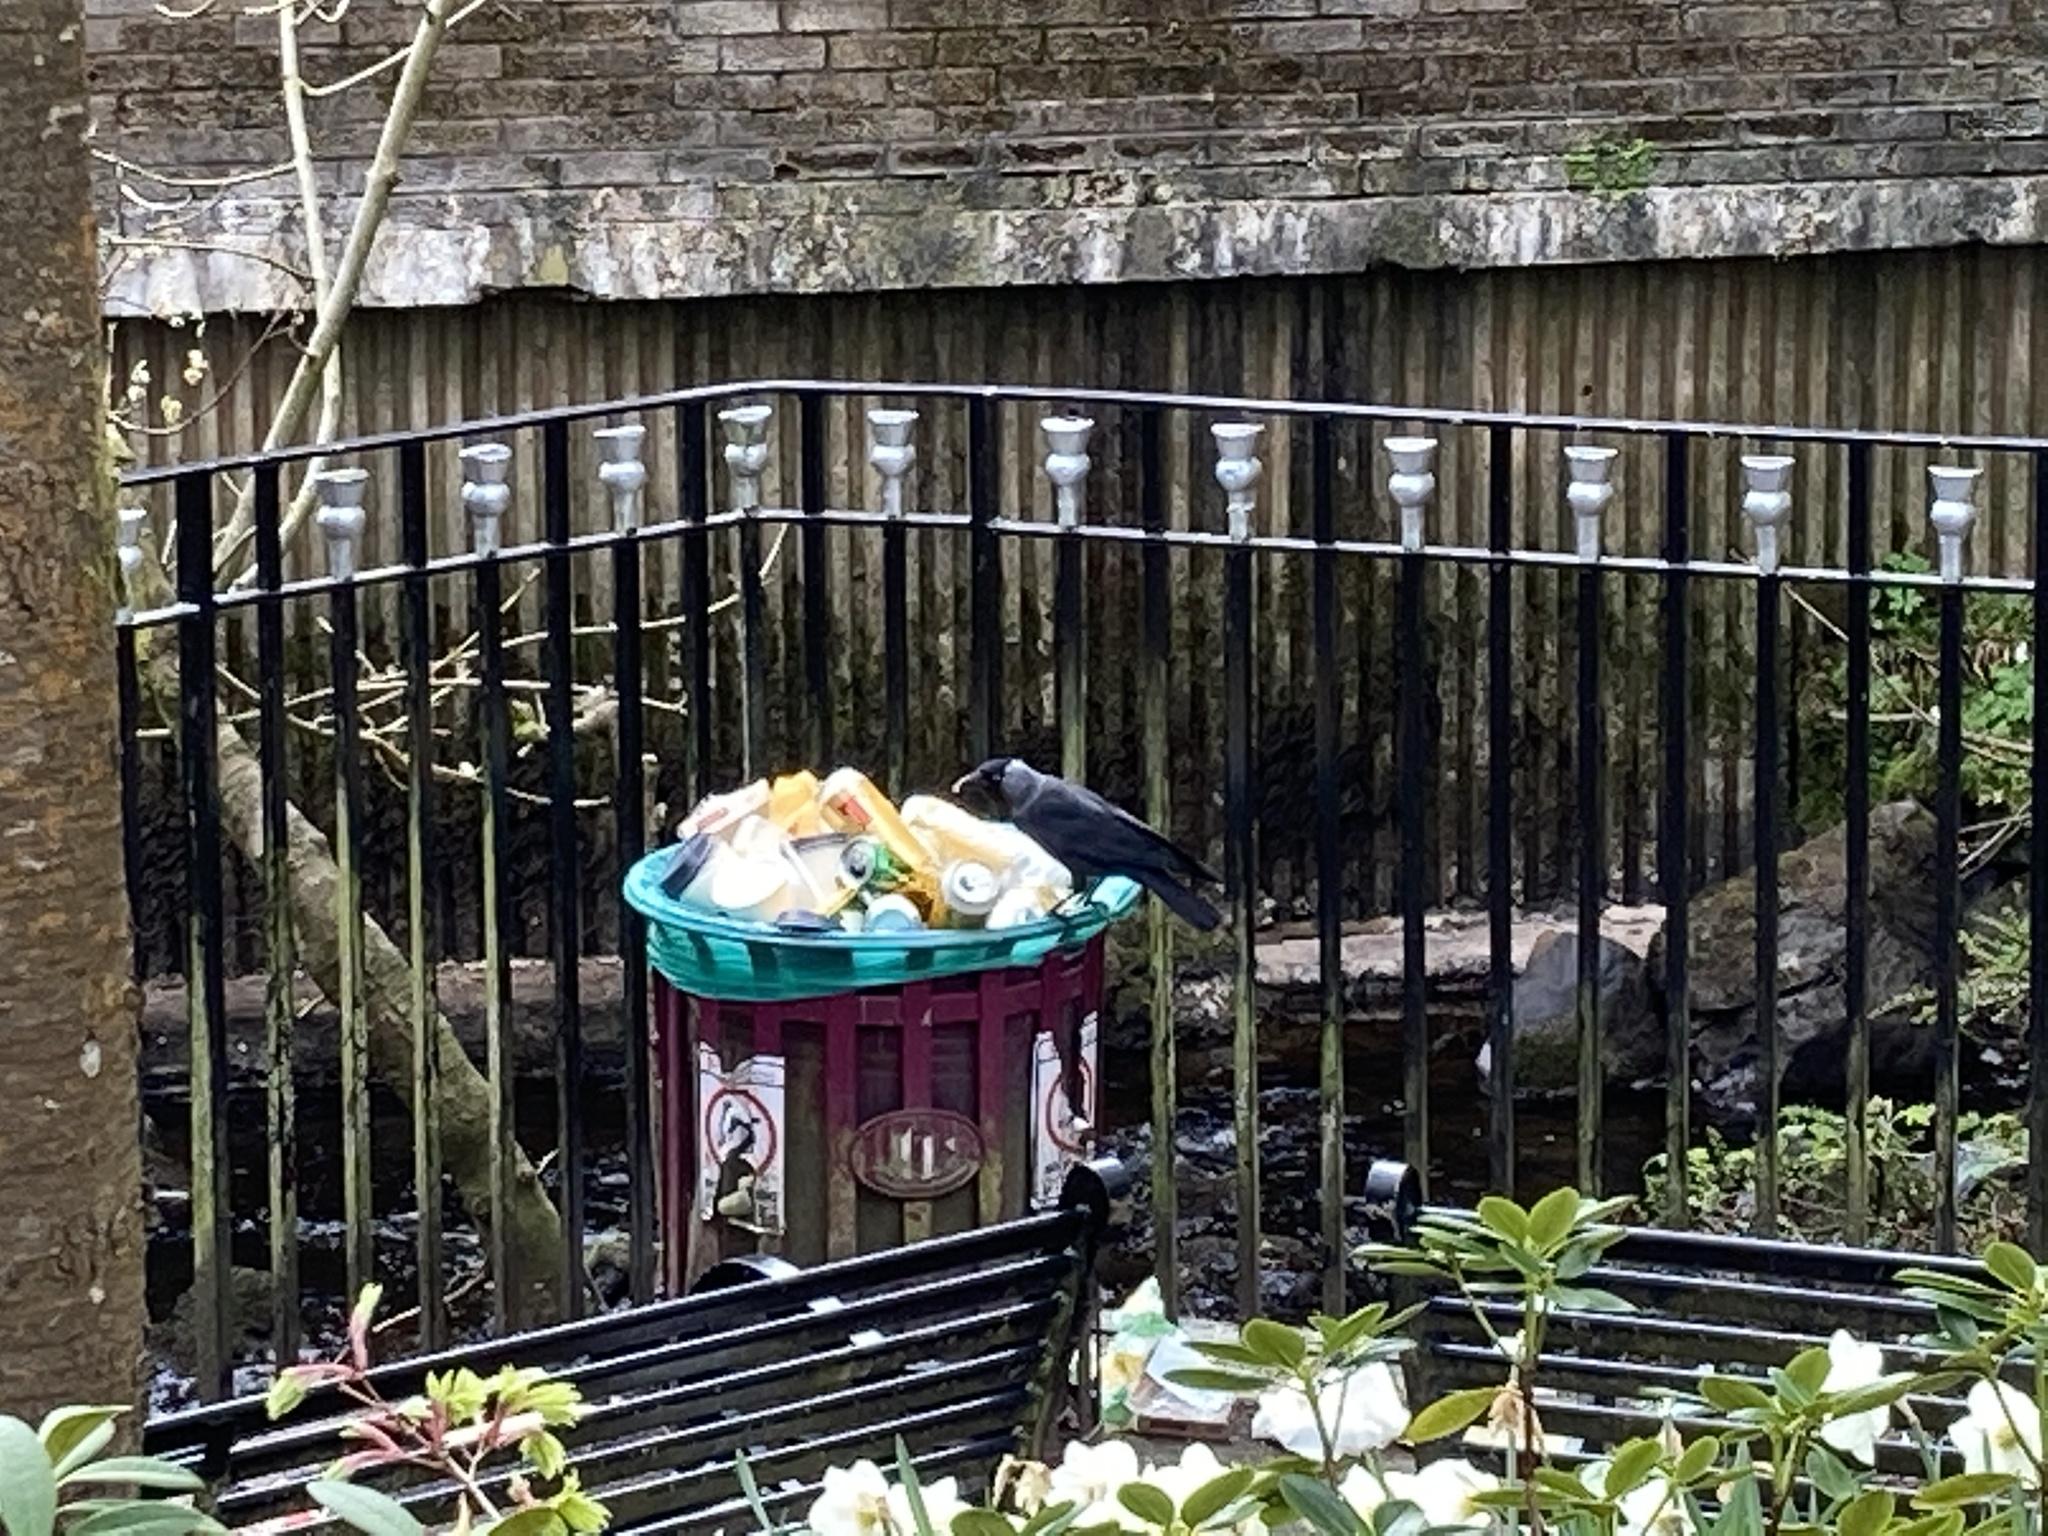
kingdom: Animalia
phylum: Chordata
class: Aves
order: Passeriformes
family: Corvidae
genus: Coloeus
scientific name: Coloeus monedula
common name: Western jackdaw
